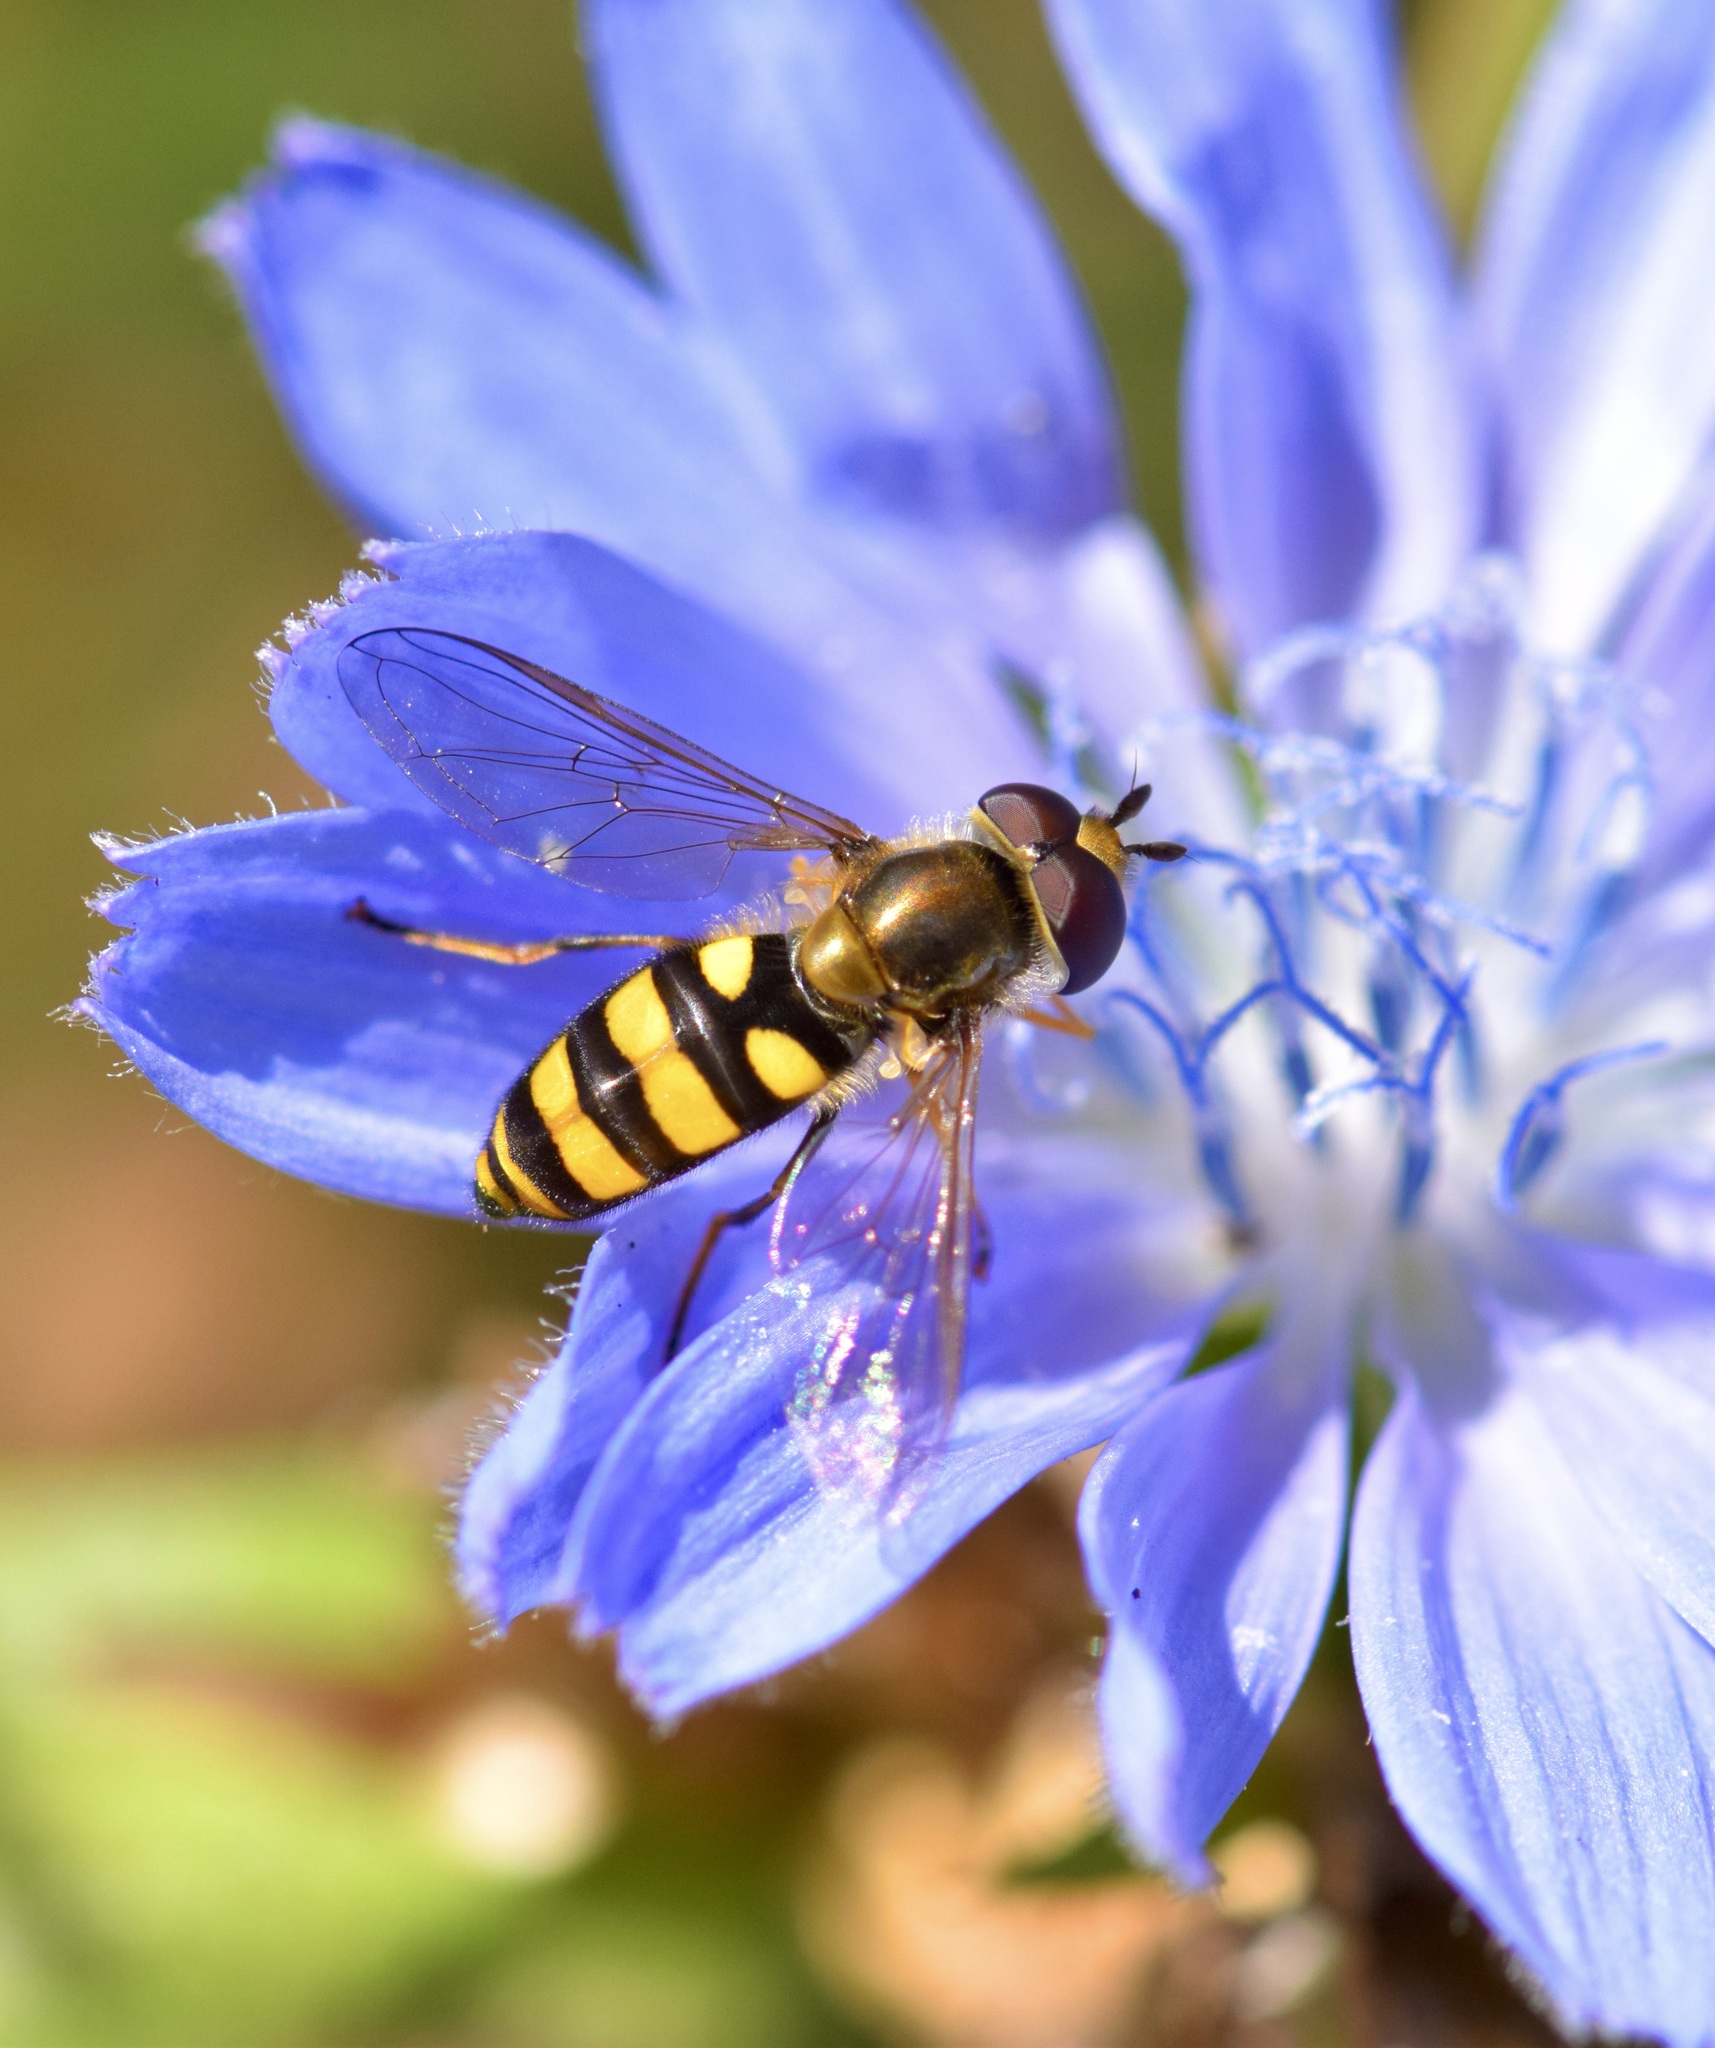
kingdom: Animalia
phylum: Arthropoda
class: Insecta
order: Diptera
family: Syrphidae
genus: Eupeodes
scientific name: Eupeodes
